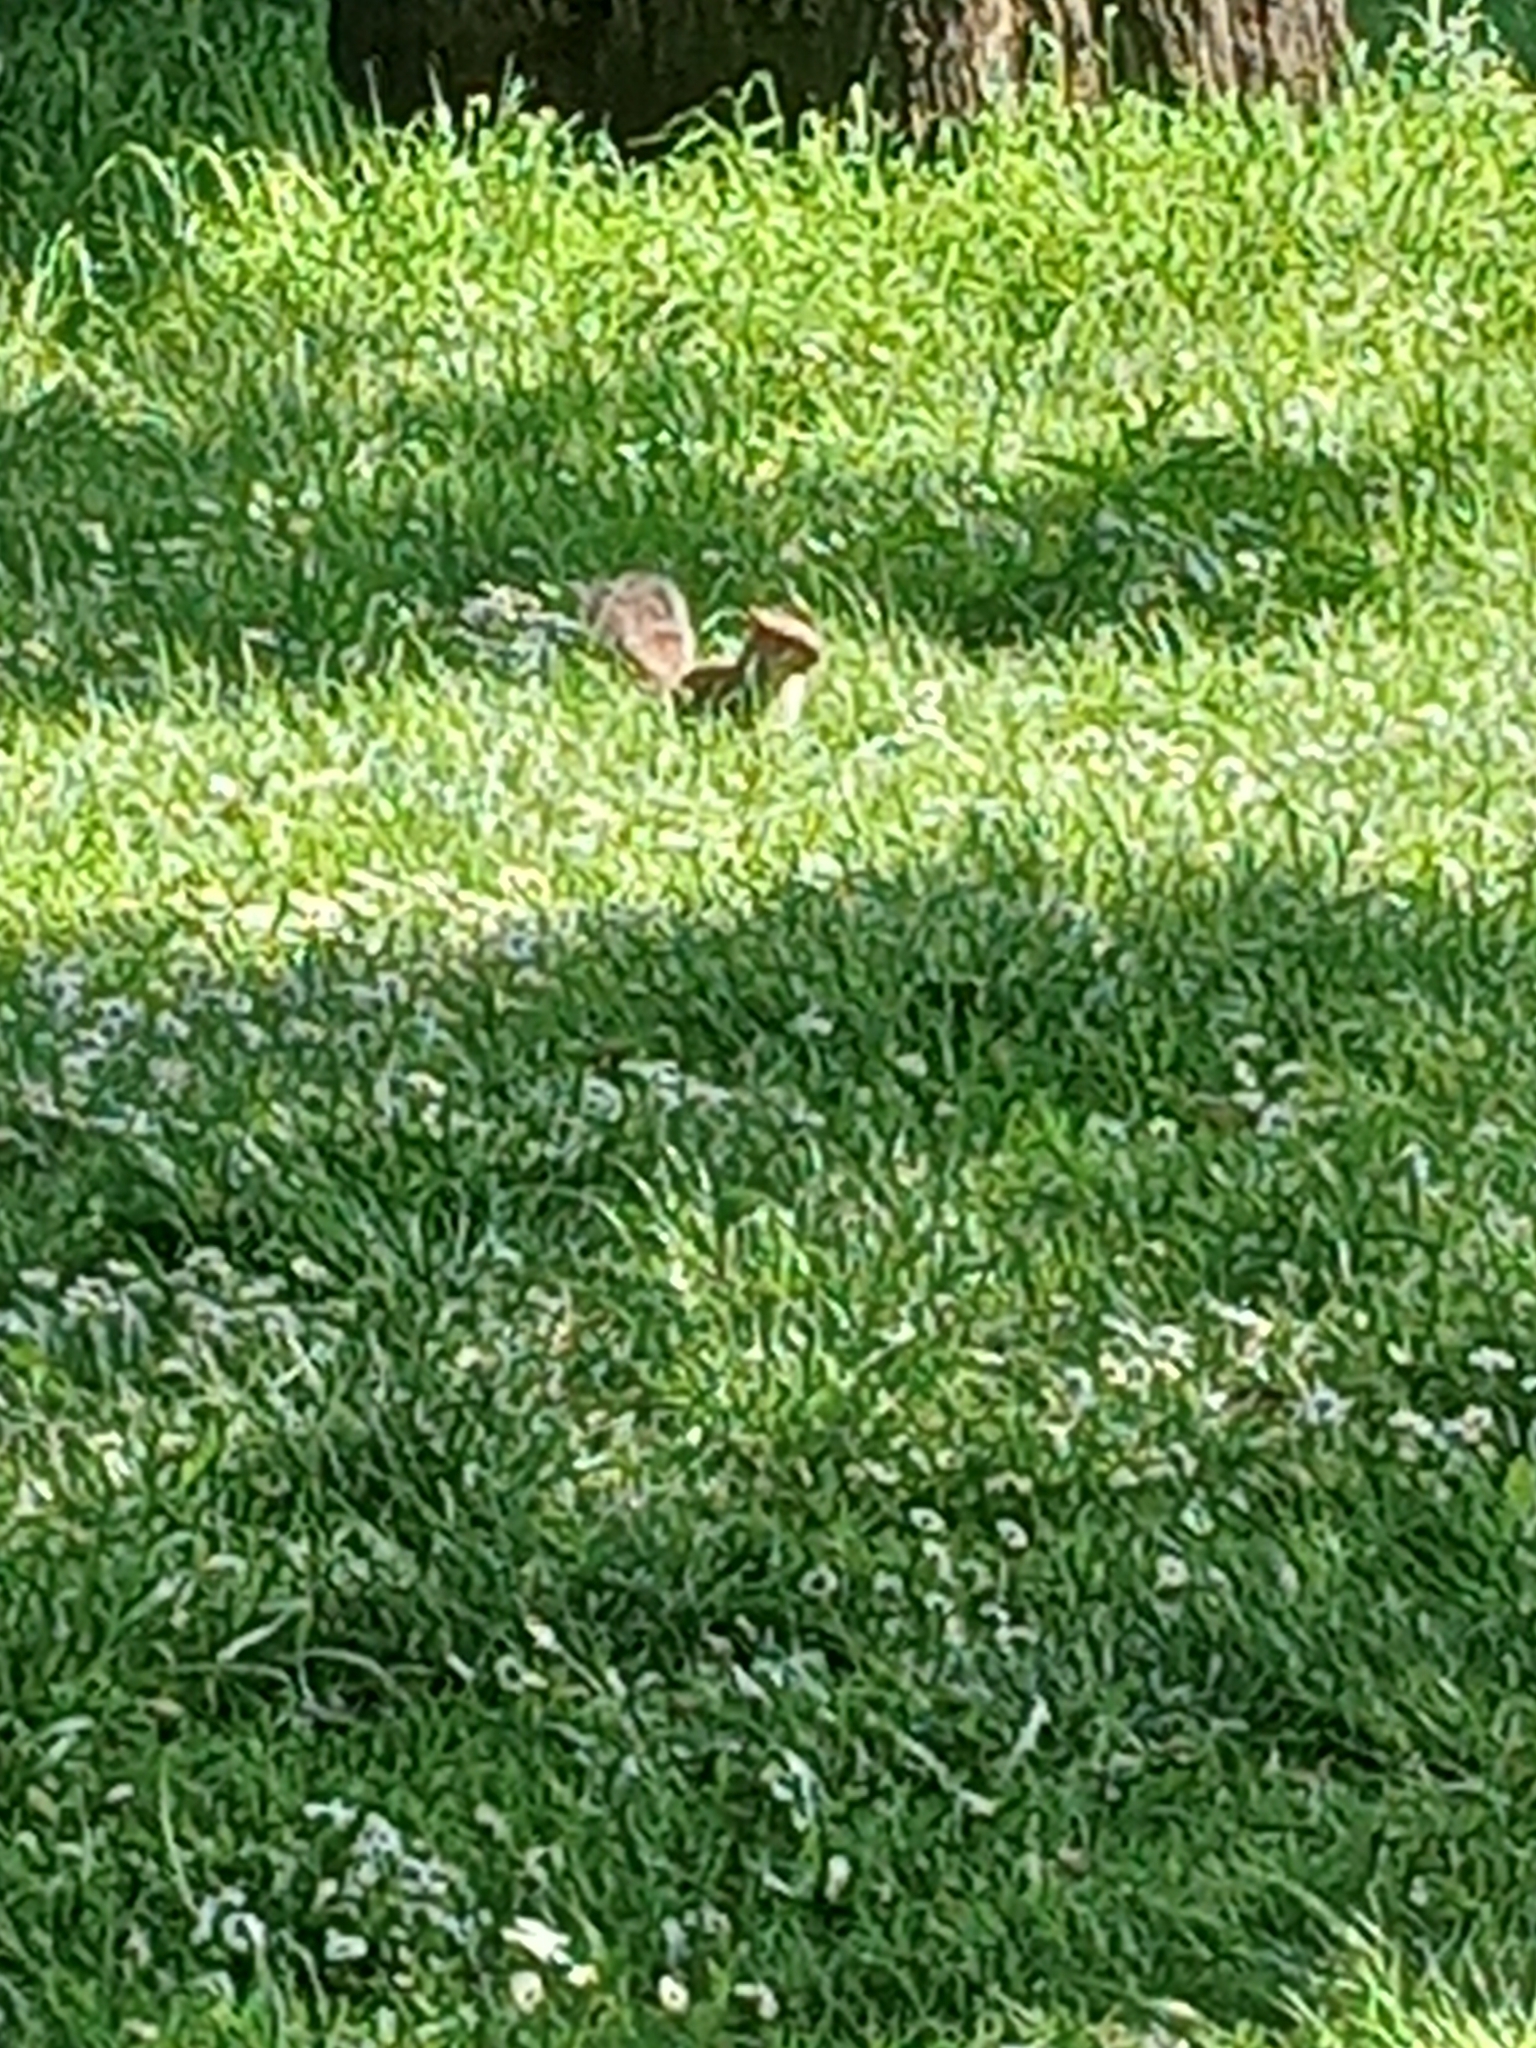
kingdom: Animalia
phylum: Chordata
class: Mammalia
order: Rodentia
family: Sciuridae
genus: Sciurus
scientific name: Sciurus carolinensis
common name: Eastern gray squirrel
